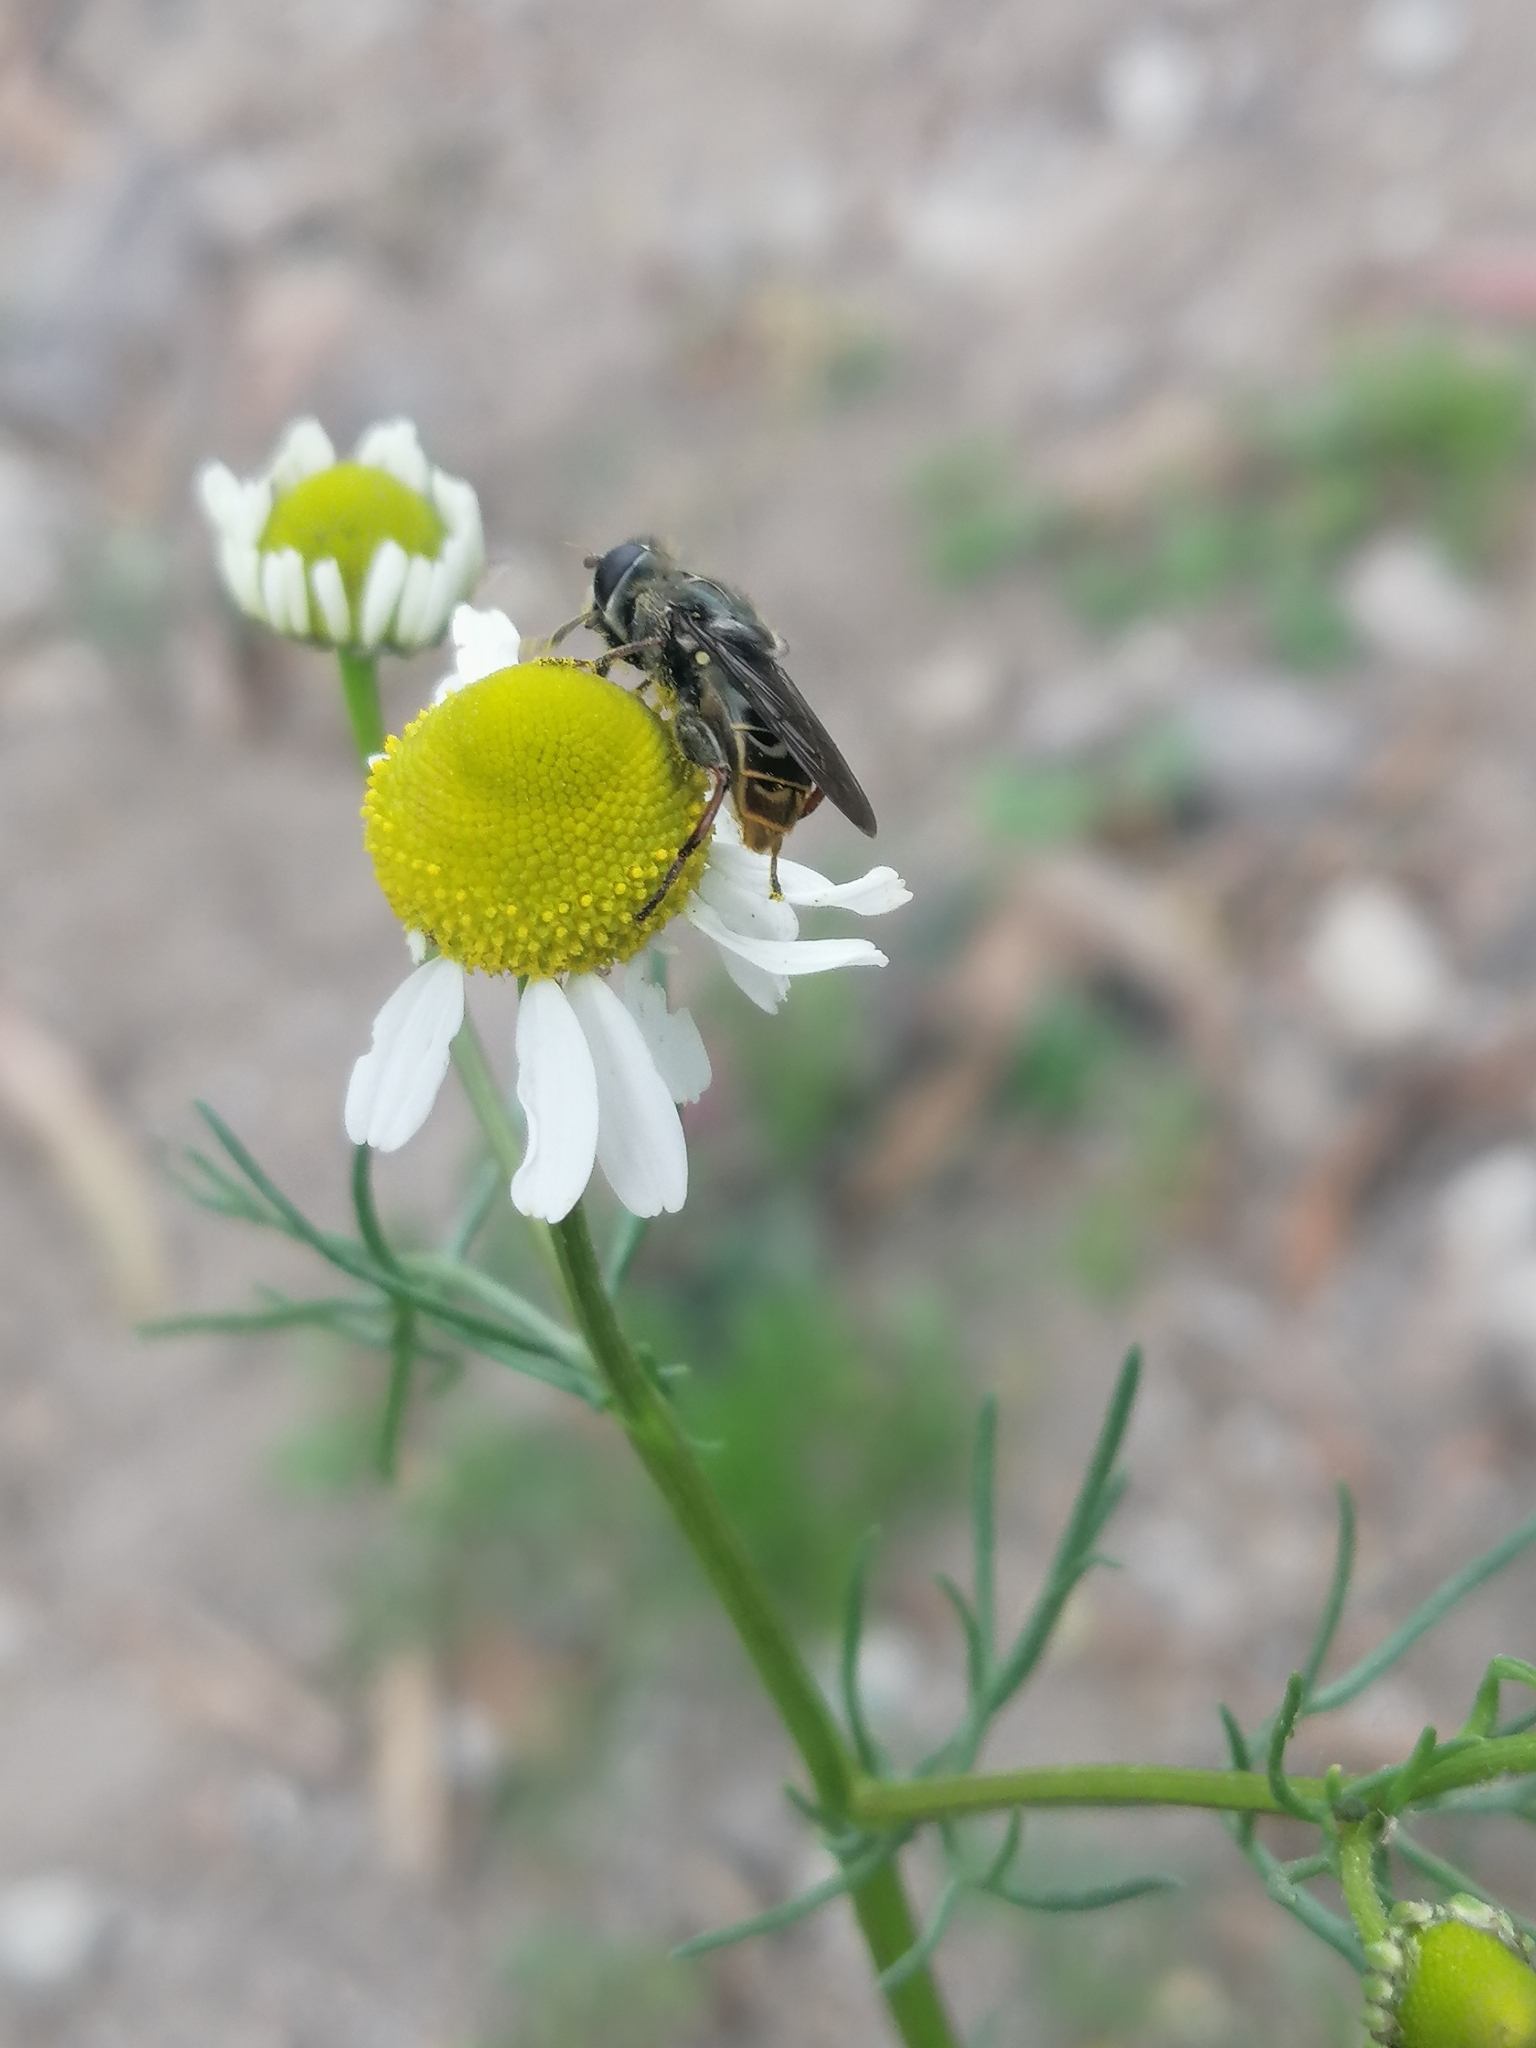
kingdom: Animalia
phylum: Arthropoda
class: Insecta
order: Diptera
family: Syrphidae
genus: Asemosyrphus
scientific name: Asemosyrphus
